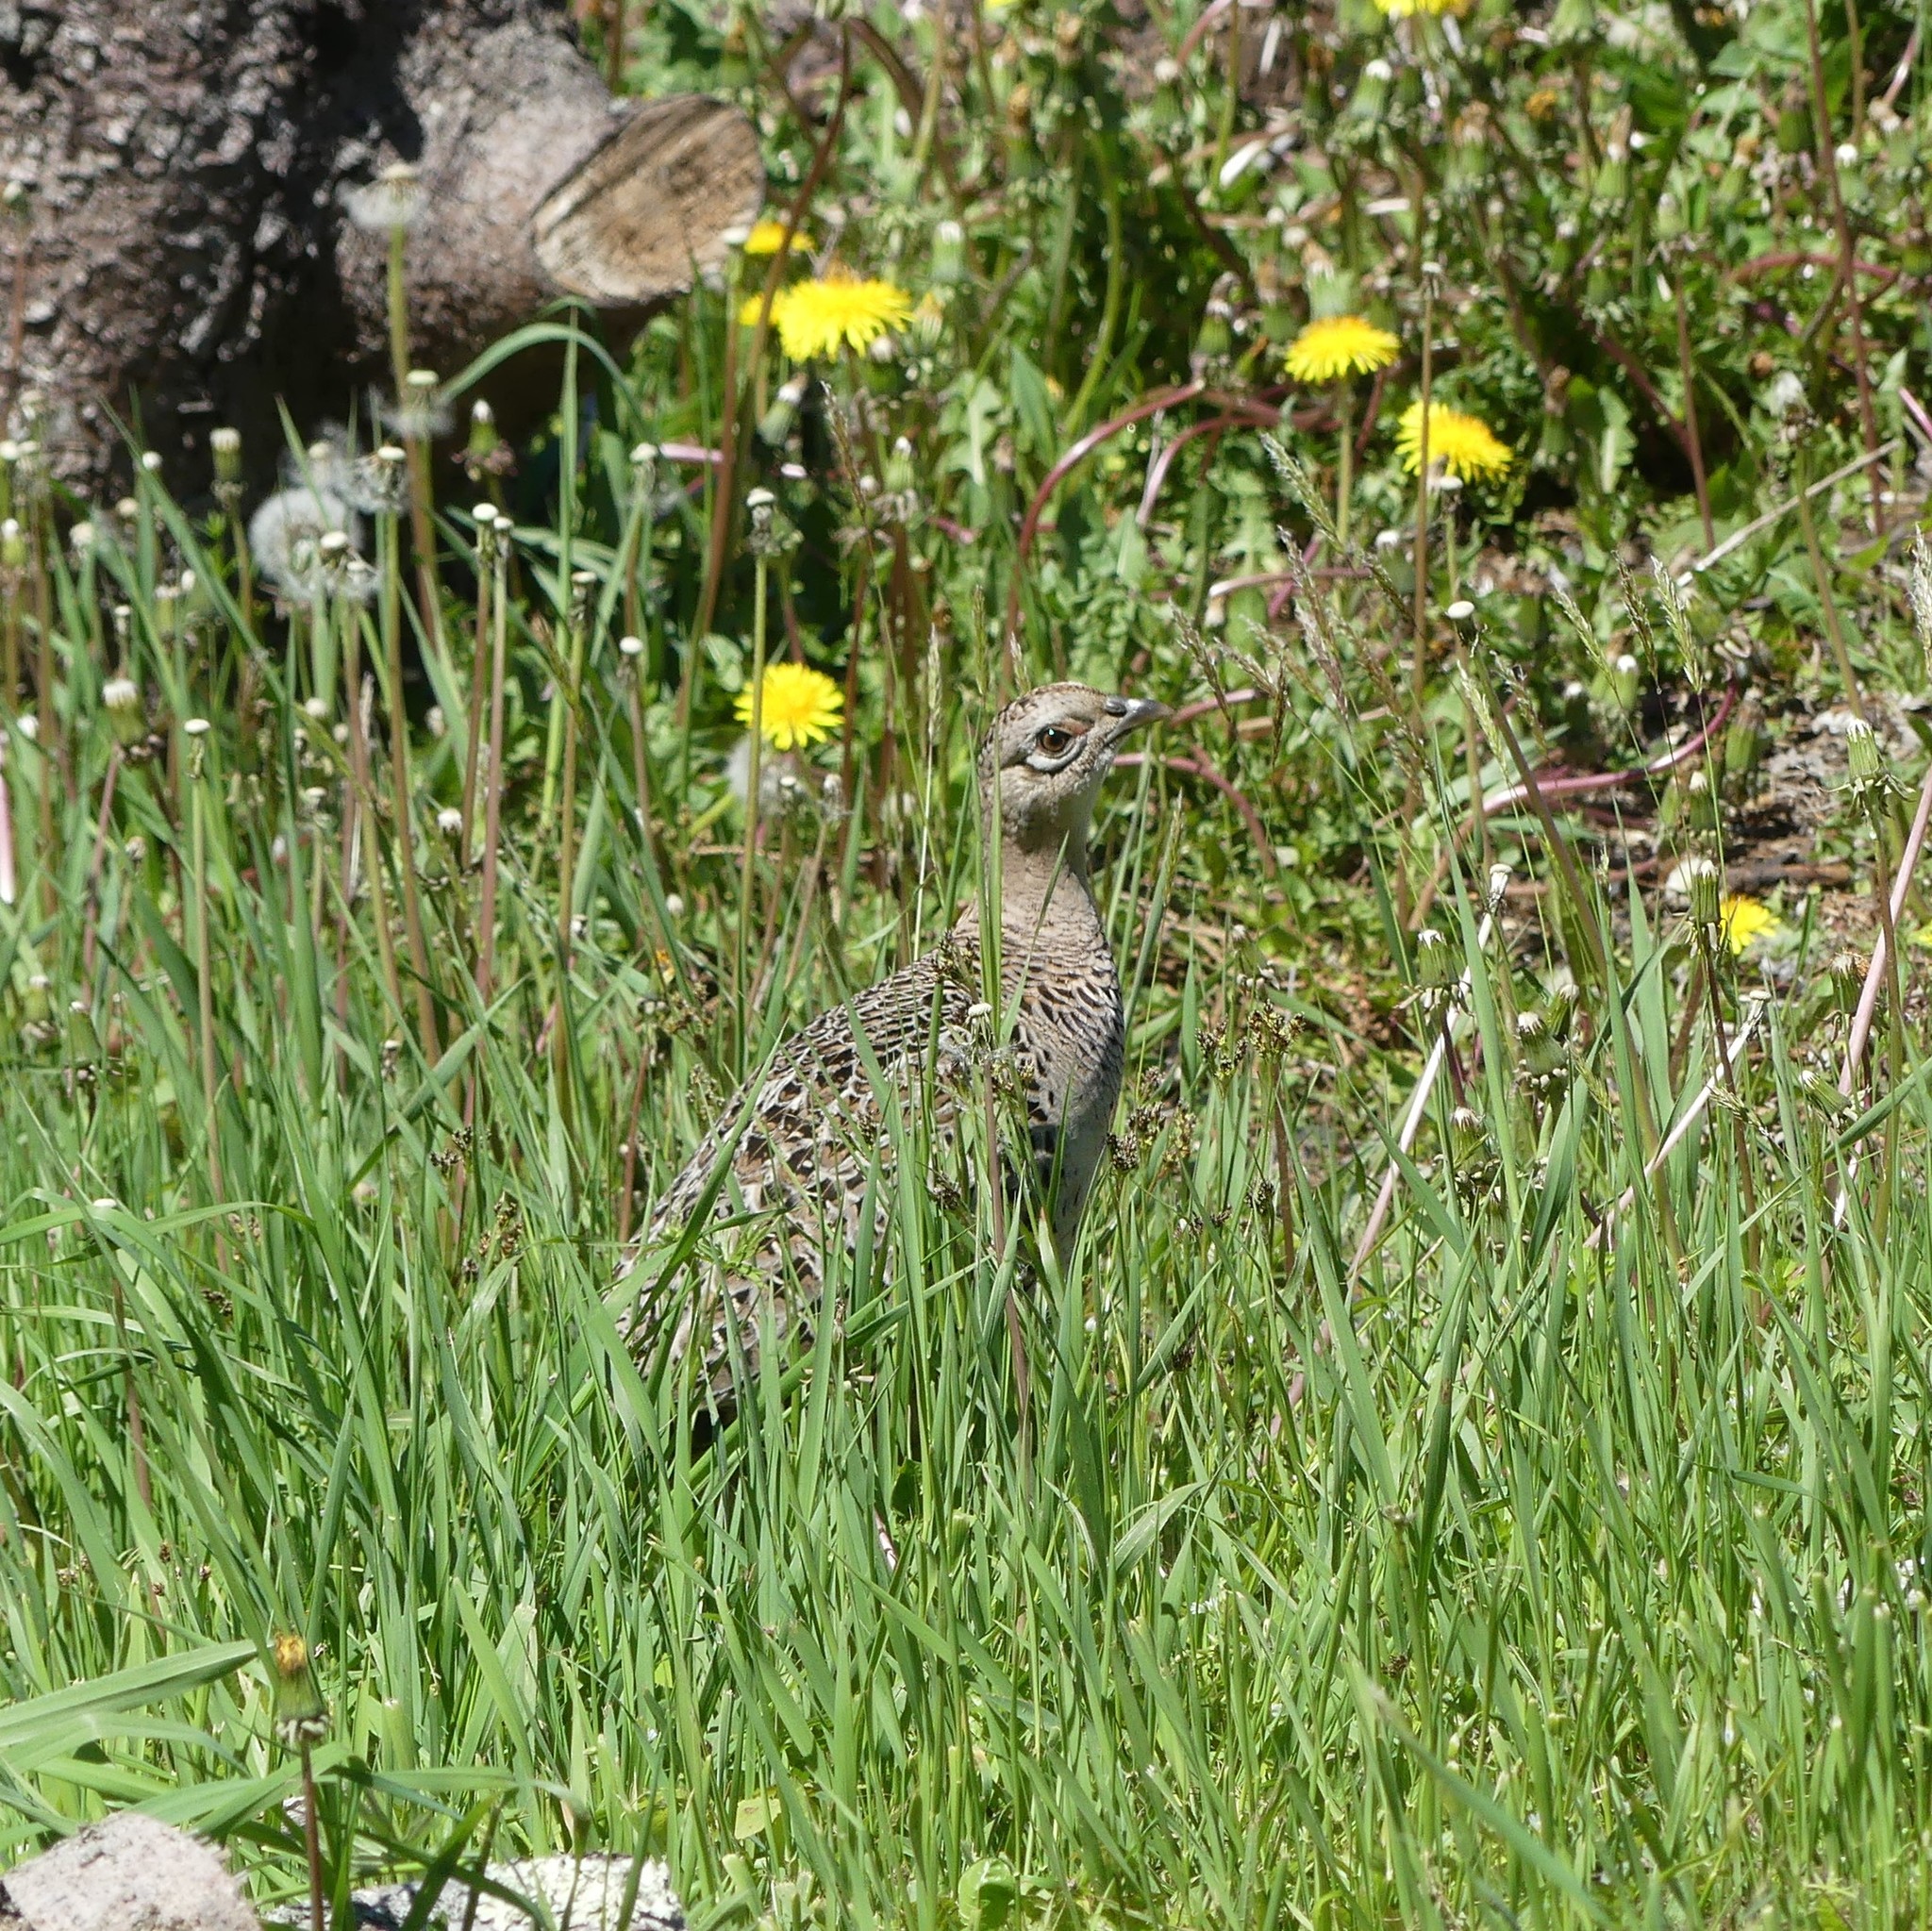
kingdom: Animalia
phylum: Chordata
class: Aves
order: Galliformes
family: Phasianidae
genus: Phasianus
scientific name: Phasianus colchicus
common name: Common pheasant
